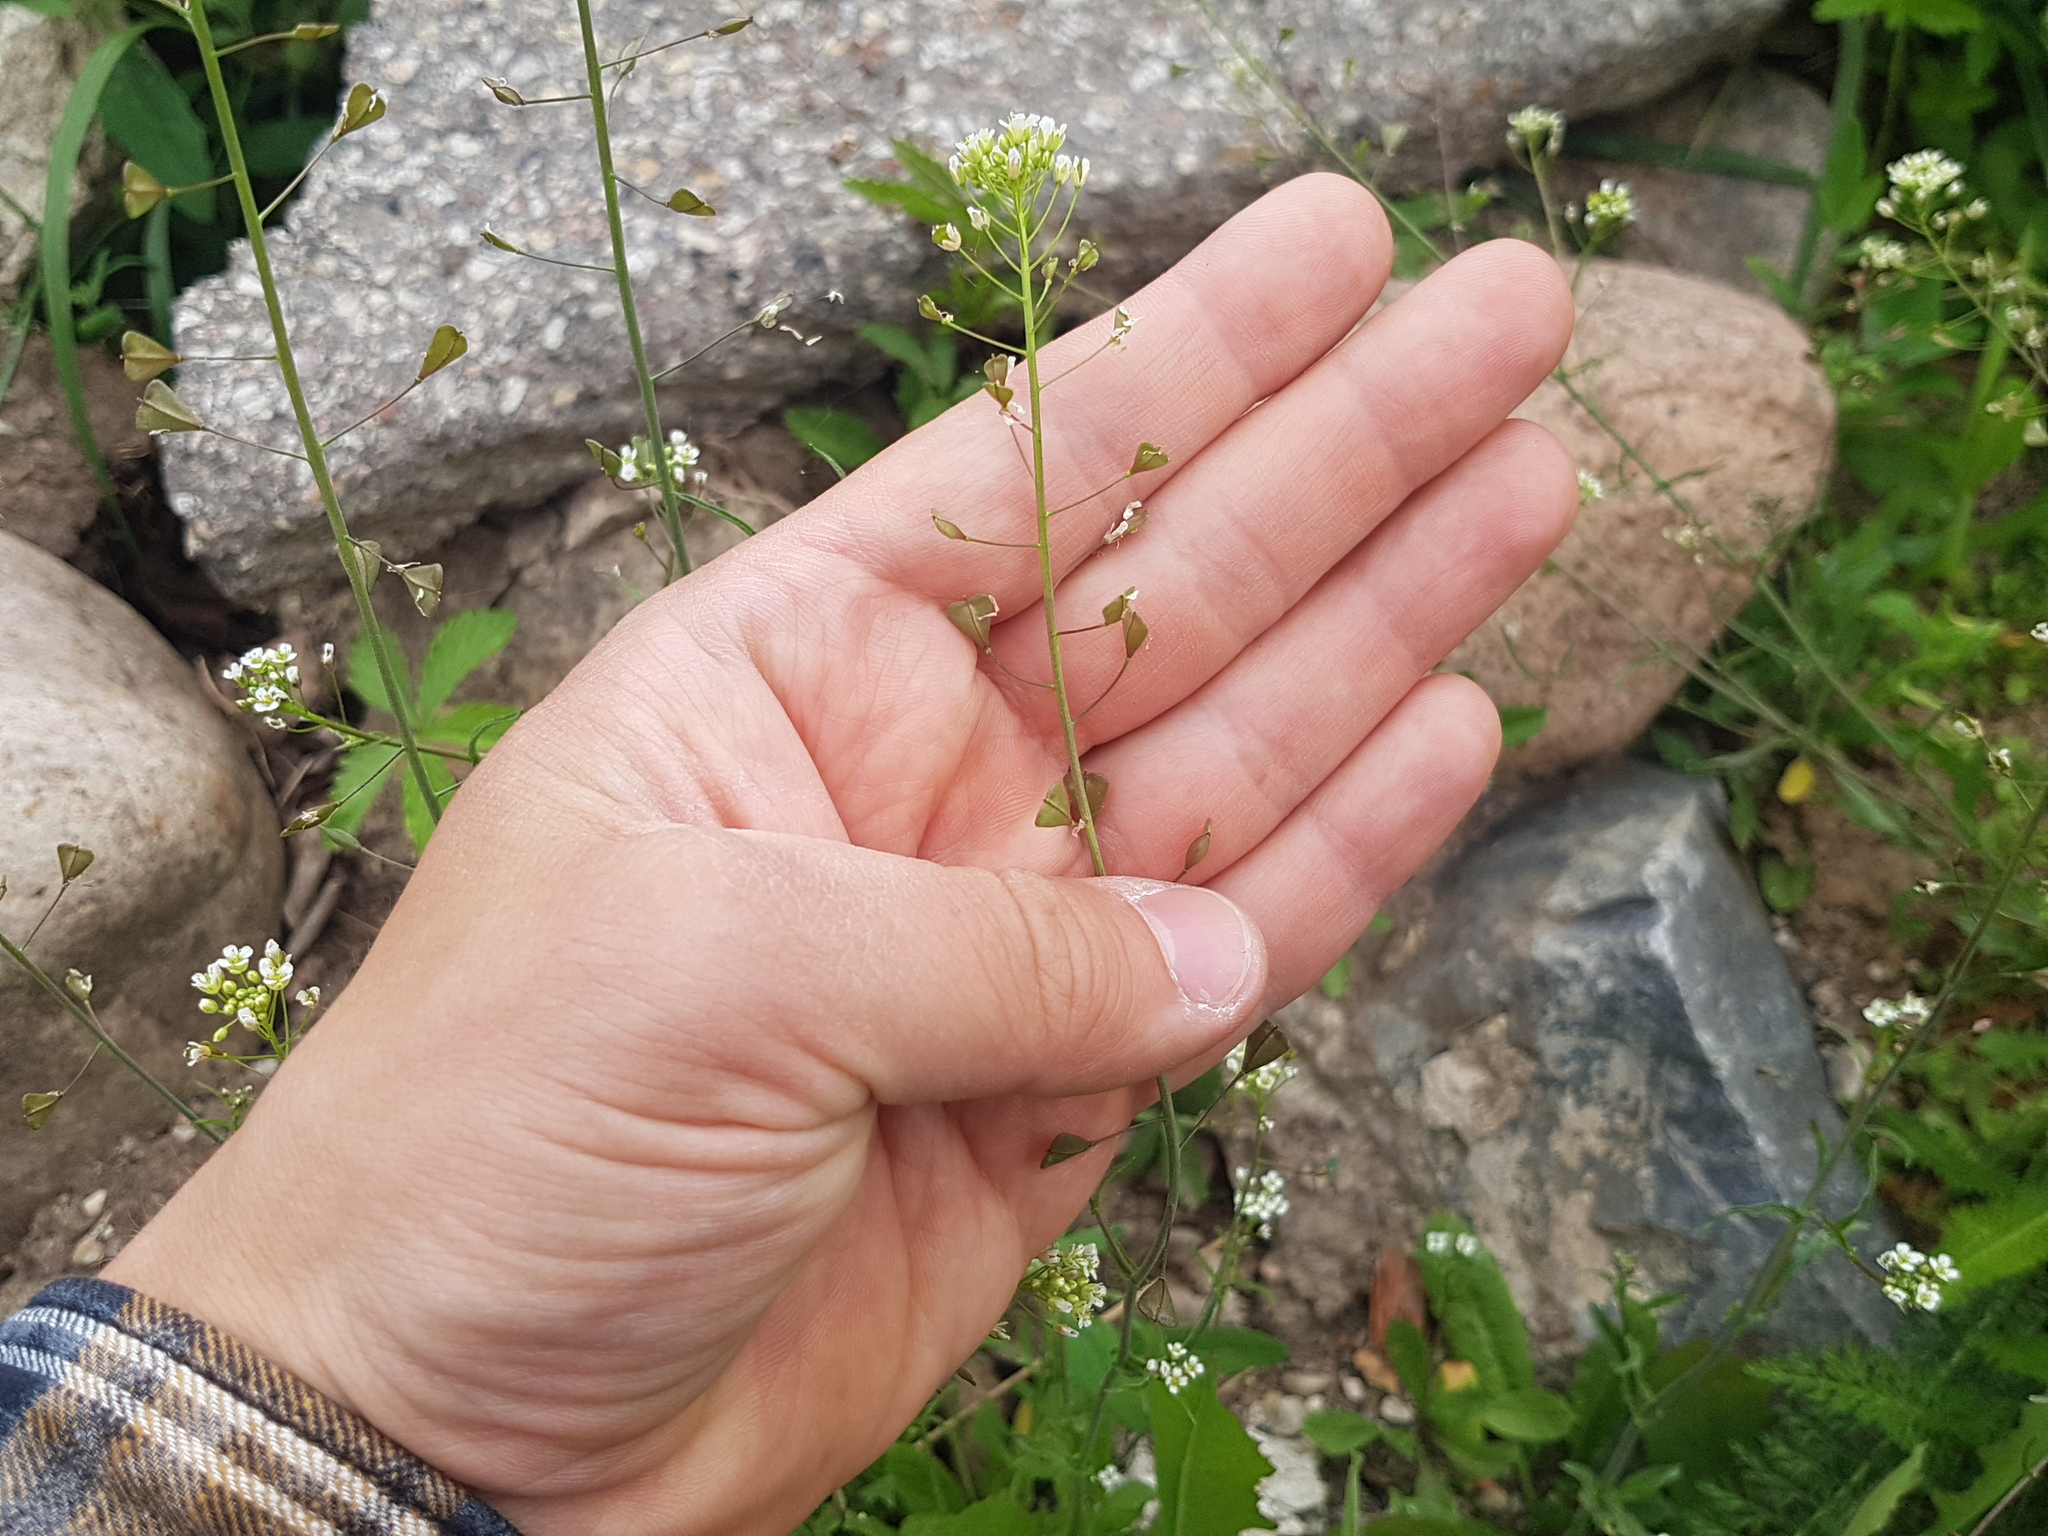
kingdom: Plantae
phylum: Tracheophyta
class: Magnoliopsida
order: Brassicales
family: Brassicaceae
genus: Capsella
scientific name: Capsella bursa-pastoris
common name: Shepherd's purse
